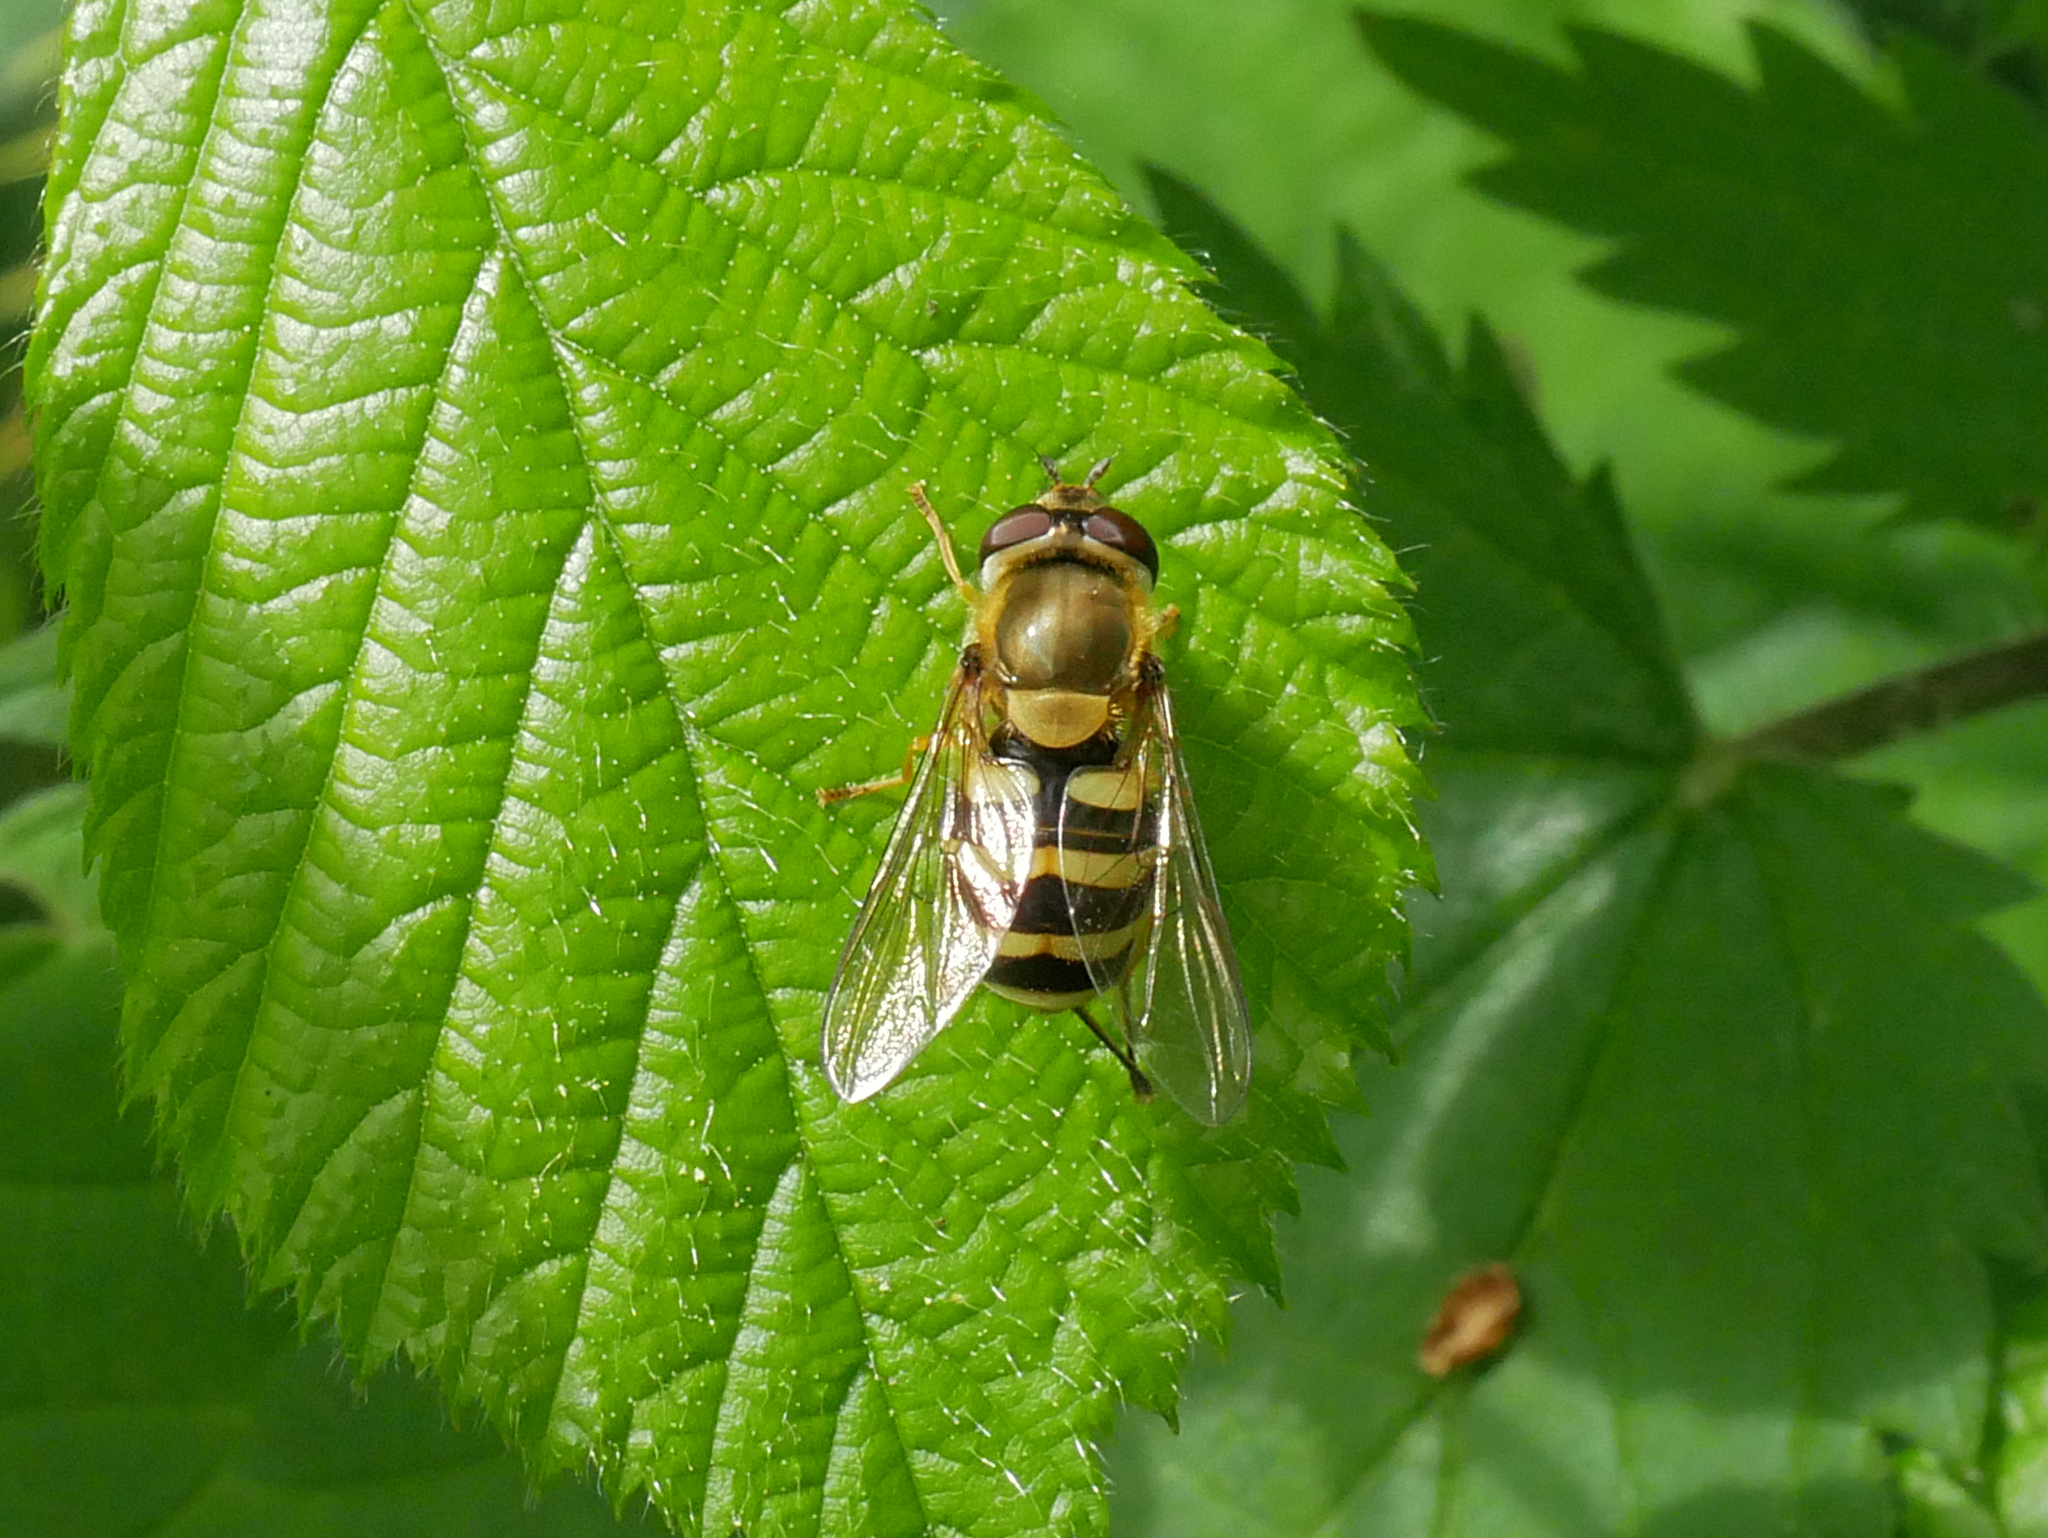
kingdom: Animalia
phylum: Arthropoda
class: Insecta
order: Diptera
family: Syrphidae
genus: Syrphus
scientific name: Syrphus
